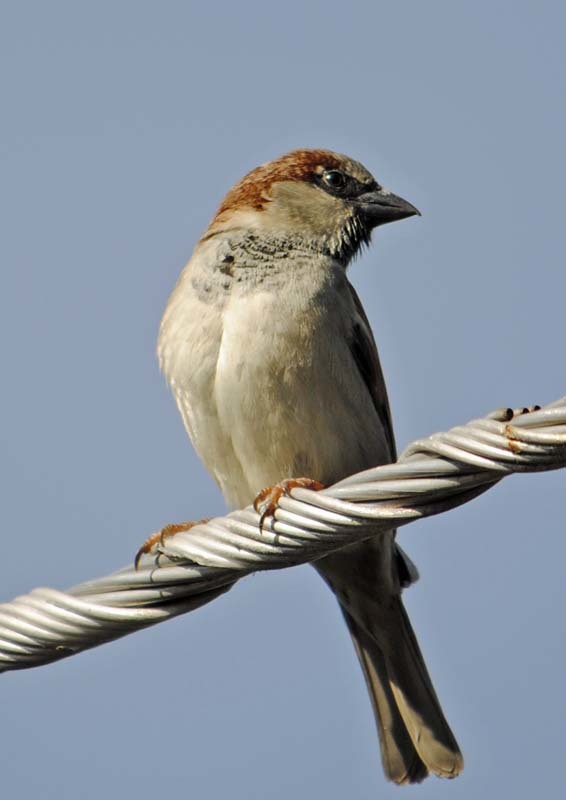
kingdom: Animalia
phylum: Chordata
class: Aves
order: Passeriformes
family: Passeridae
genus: Passer
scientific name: Passer domesticus
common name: House sparrow
